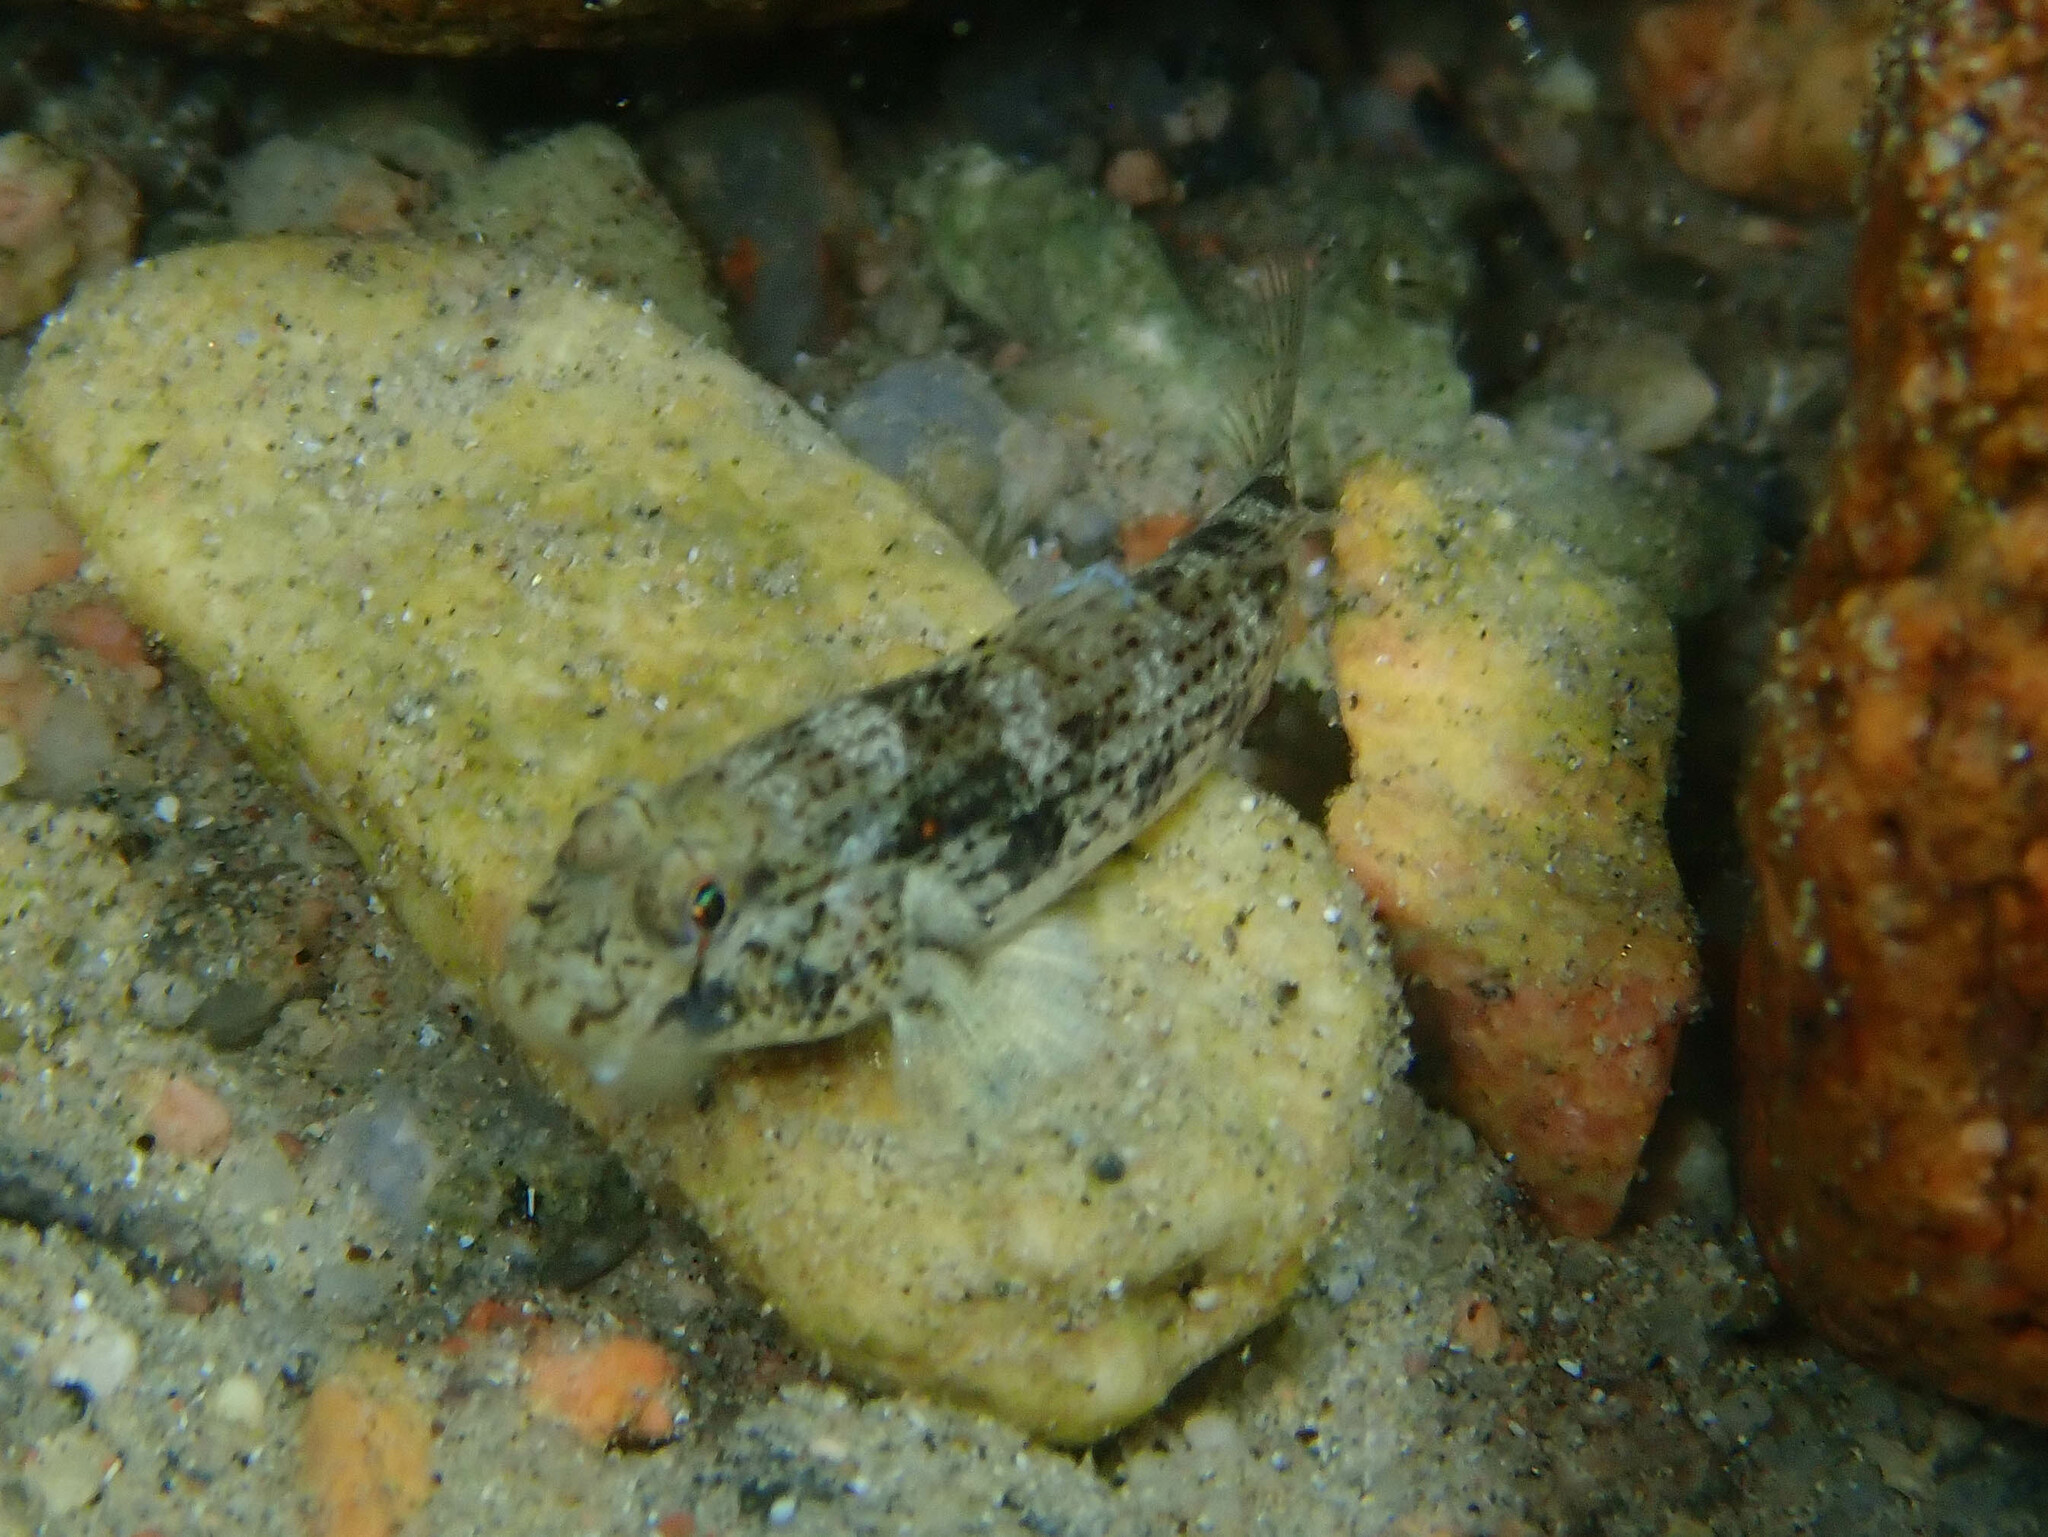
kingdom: Animalia
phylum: Chordata
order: Perciformes
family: Gobiidae
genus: Gnatholepis
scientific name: Gnatholepis anjerensis
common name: Anjer eye-bar goby
